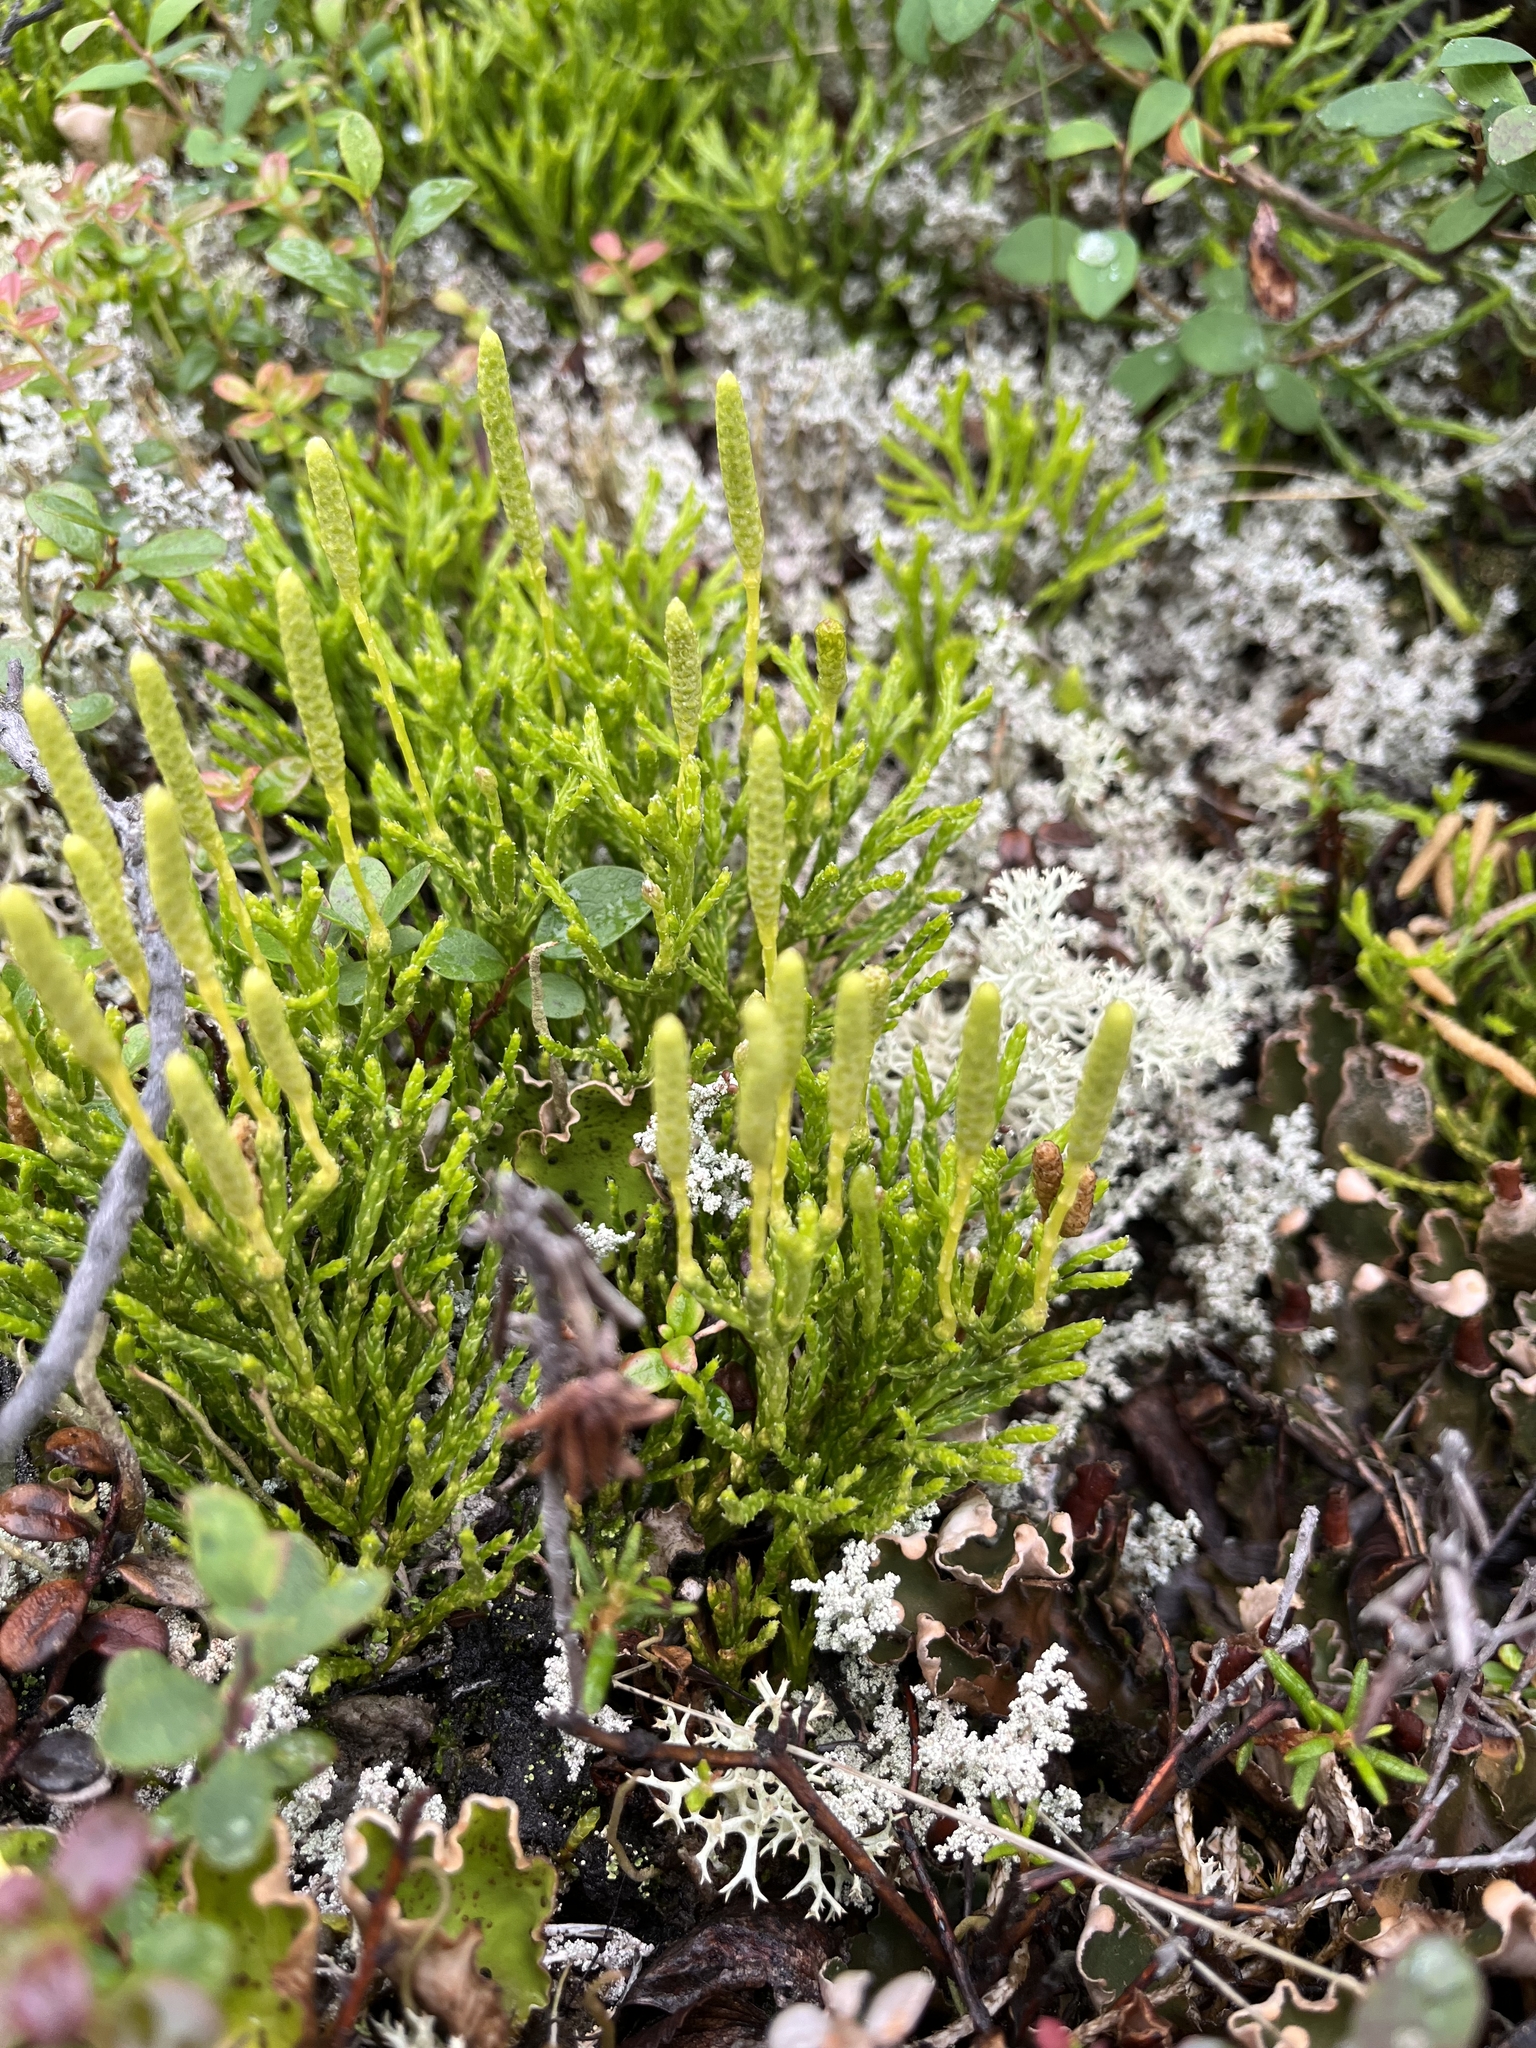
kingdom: Plantae
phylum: Tracheophyta
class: Lycopodiopsida
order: Lycopodiales
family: Lycopodiaceae
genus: Diphasiastrum
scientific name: Diphasiastrum complanatum
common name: Northern running-pine
